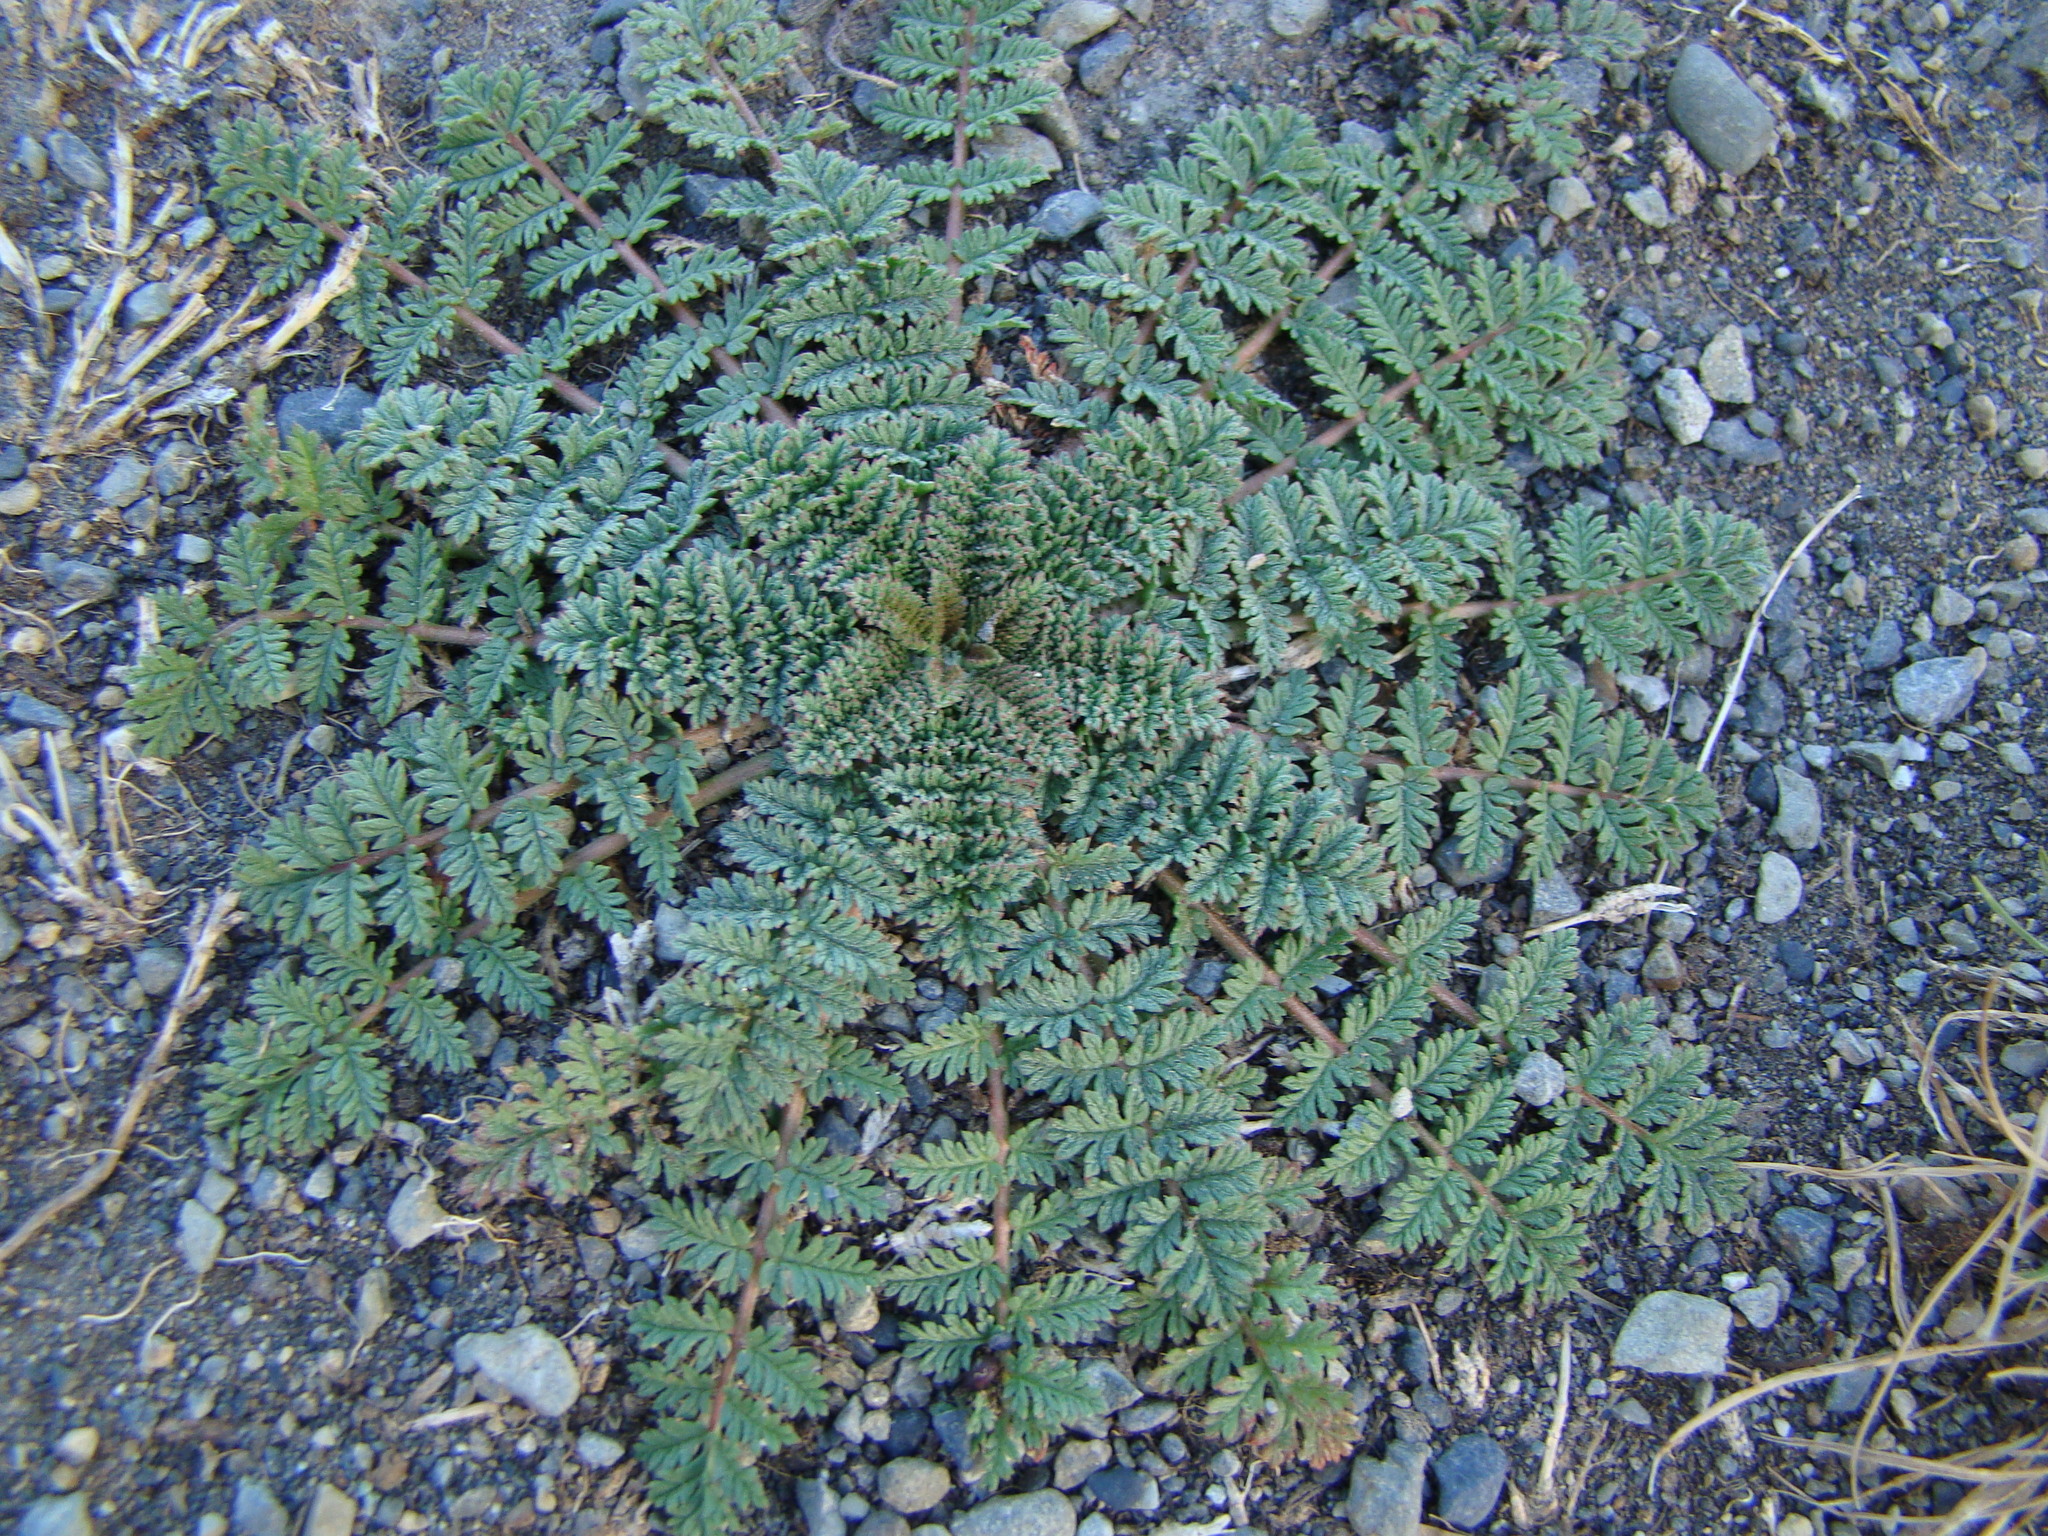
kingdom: Plantae
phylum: Tracheophyta
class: Magnoliopsida
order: Geraniales
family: Geraniaceae
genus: Erodium
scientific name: Erodium cicutarium
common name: Common stork's-bill
